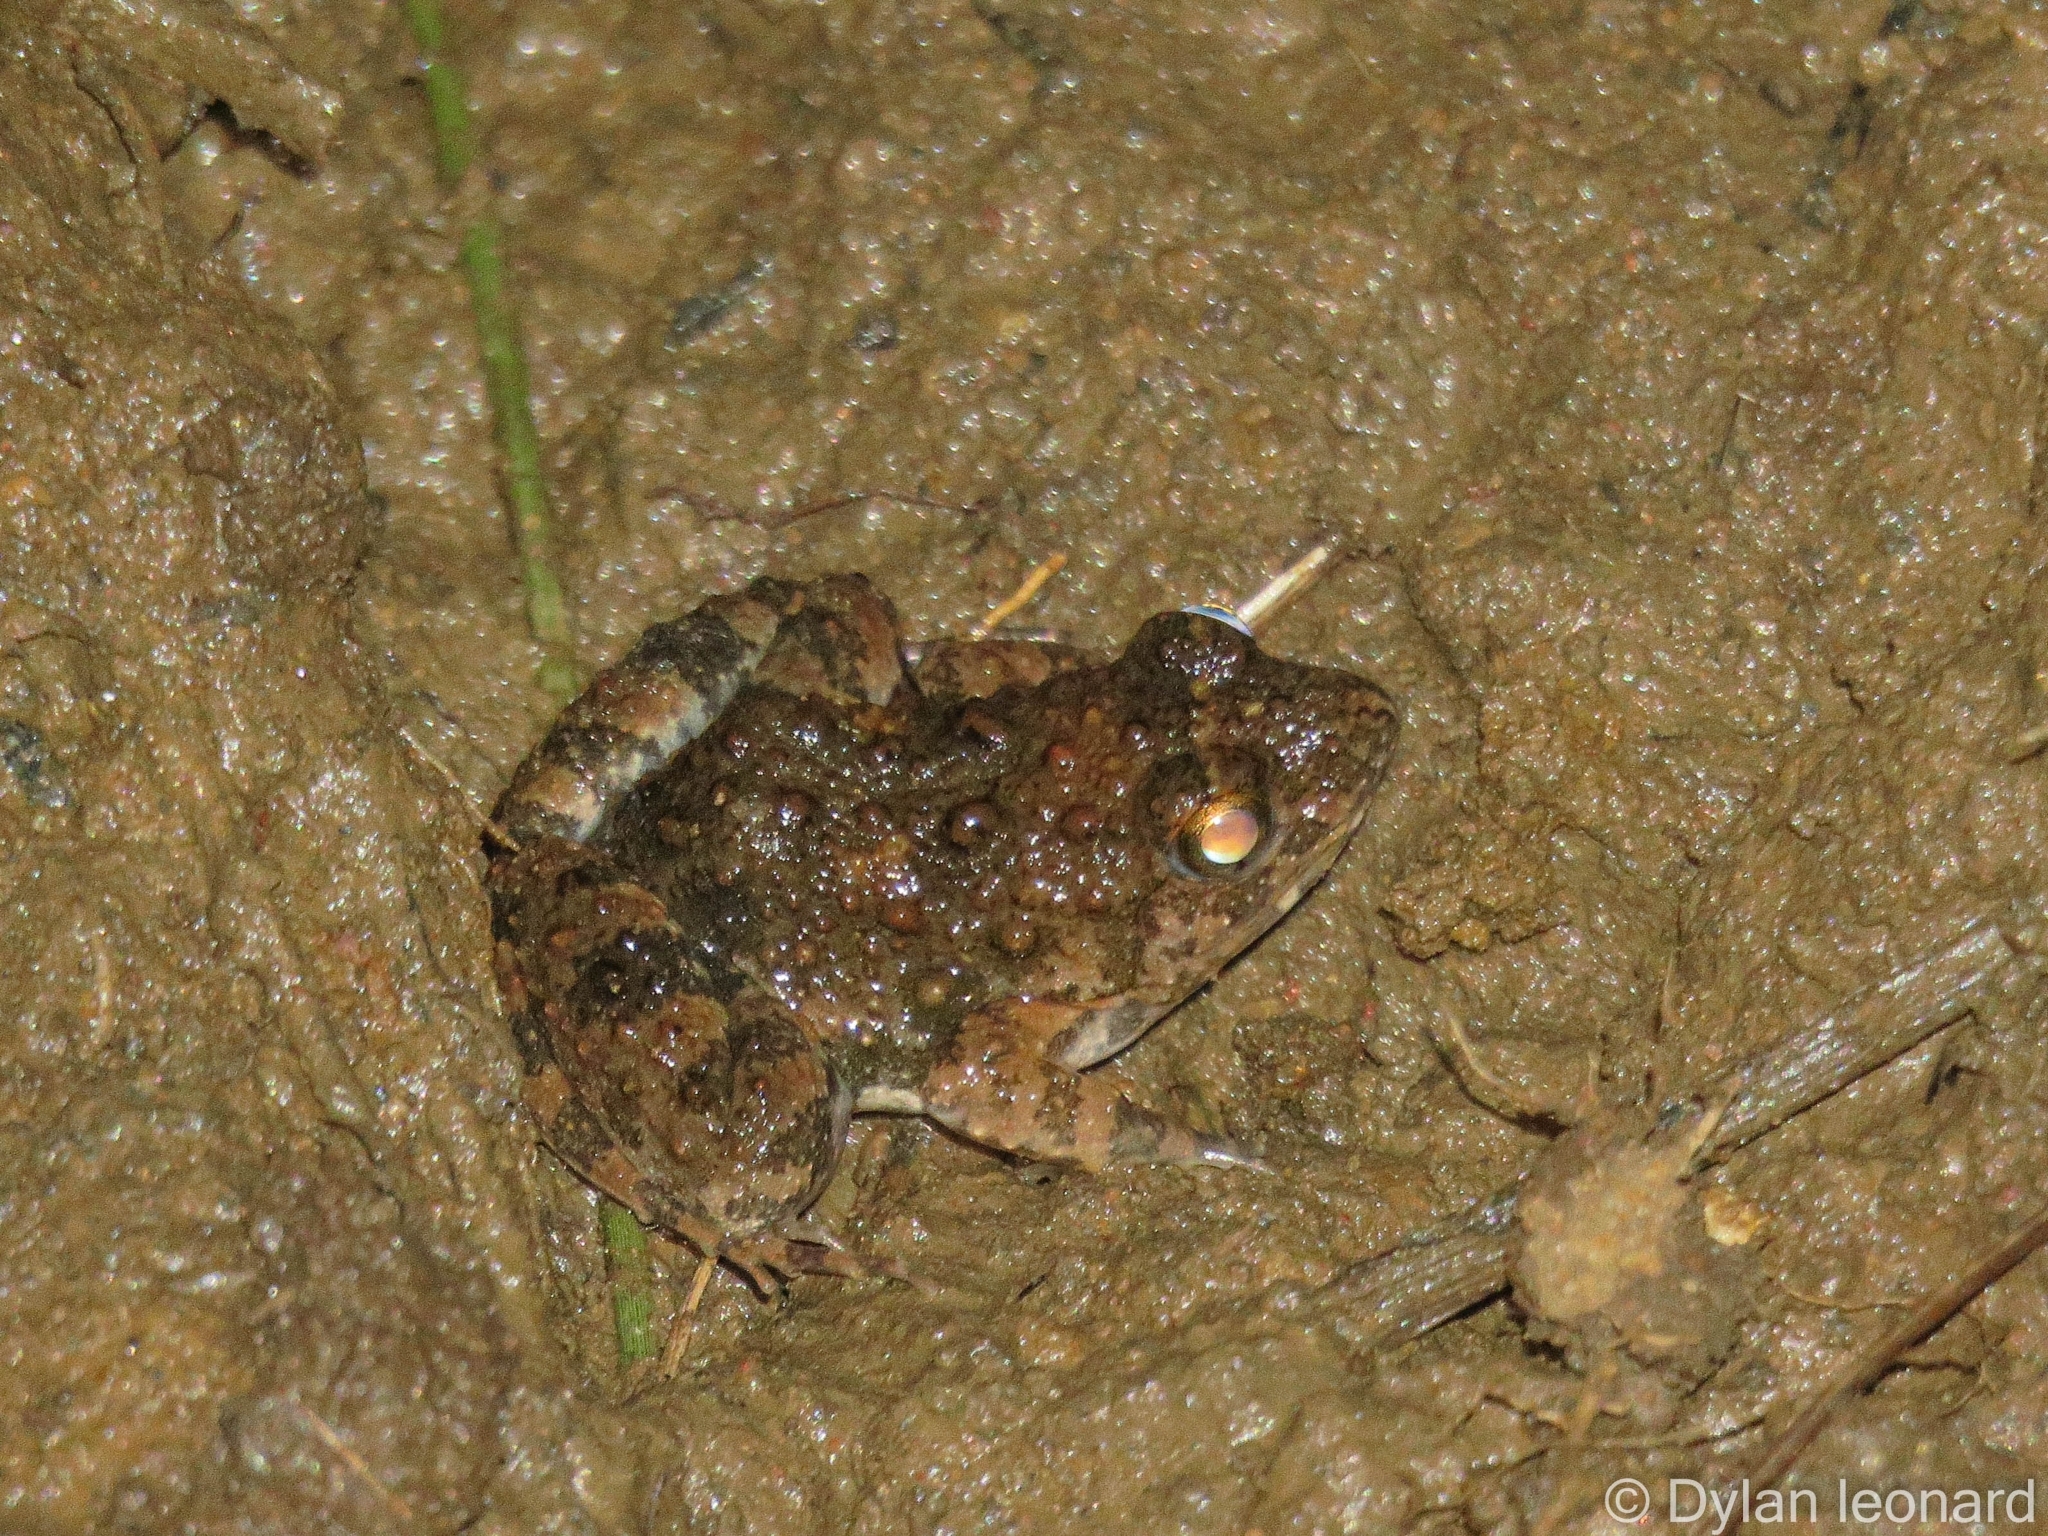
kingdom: Animalia
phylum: Chordata
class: Amphibia
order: Anura
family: Phrynobatrachidae
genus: Phrynobatrachus
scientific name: Phrynobatrachus natalensis
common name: Snoring puddle frog
